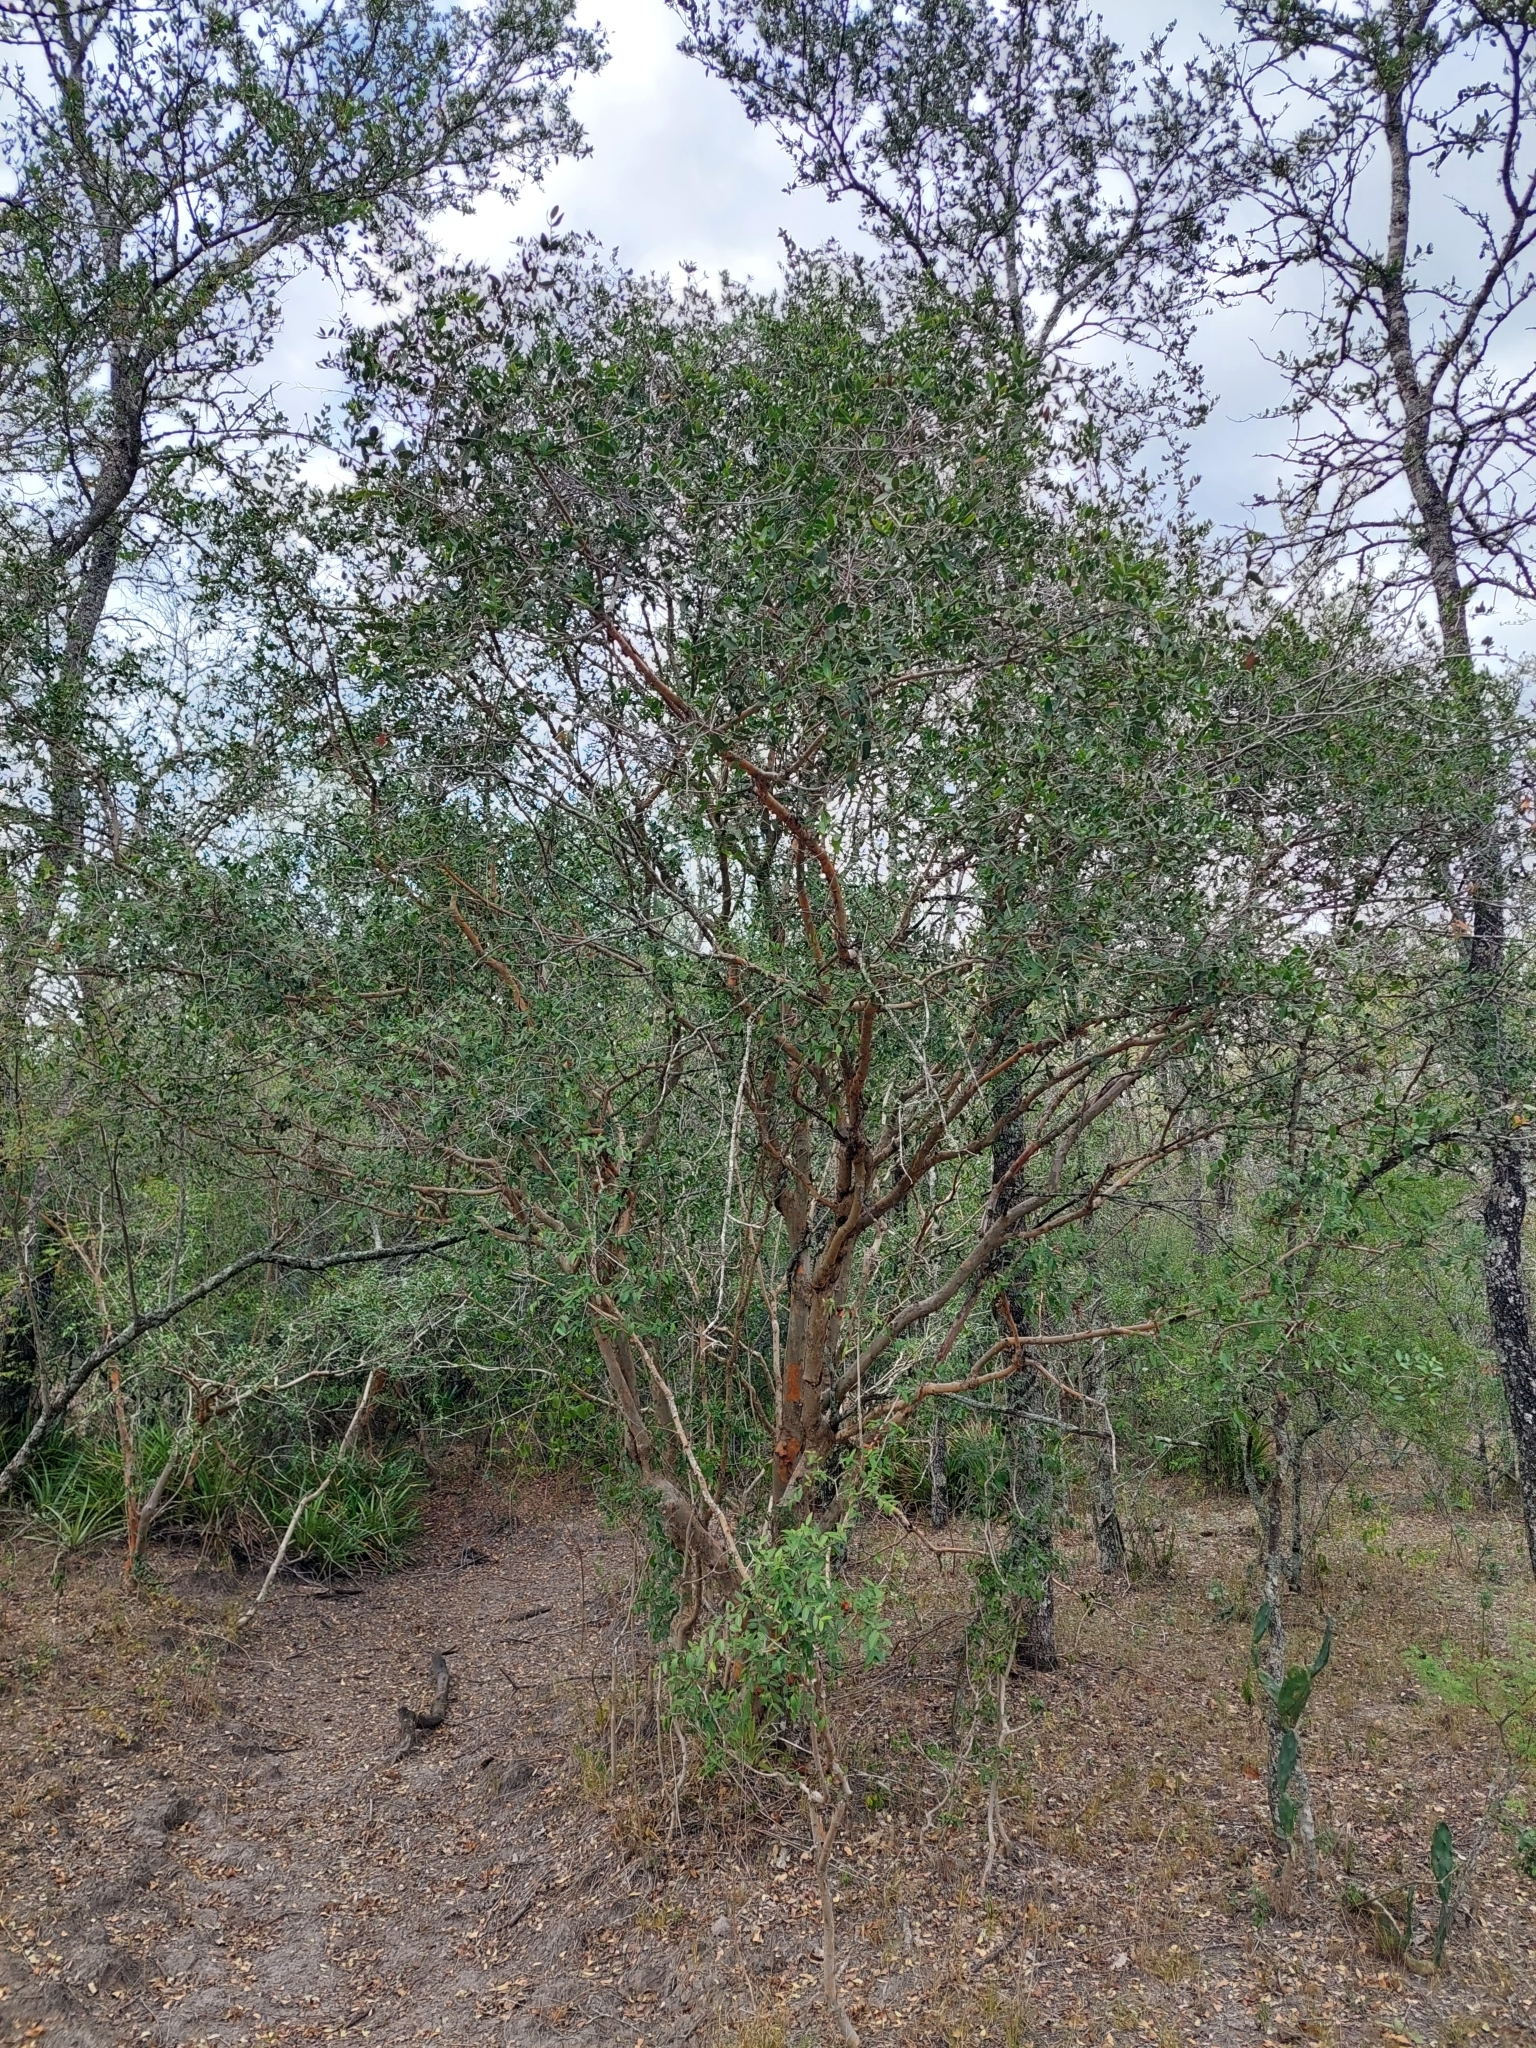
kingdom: Plantae
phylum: Tracheophyta
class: Magnoliopsida
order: Myrtales
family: Myrtaceae
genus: Myrcianthes
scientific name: Myrcianthes cisplatensis
